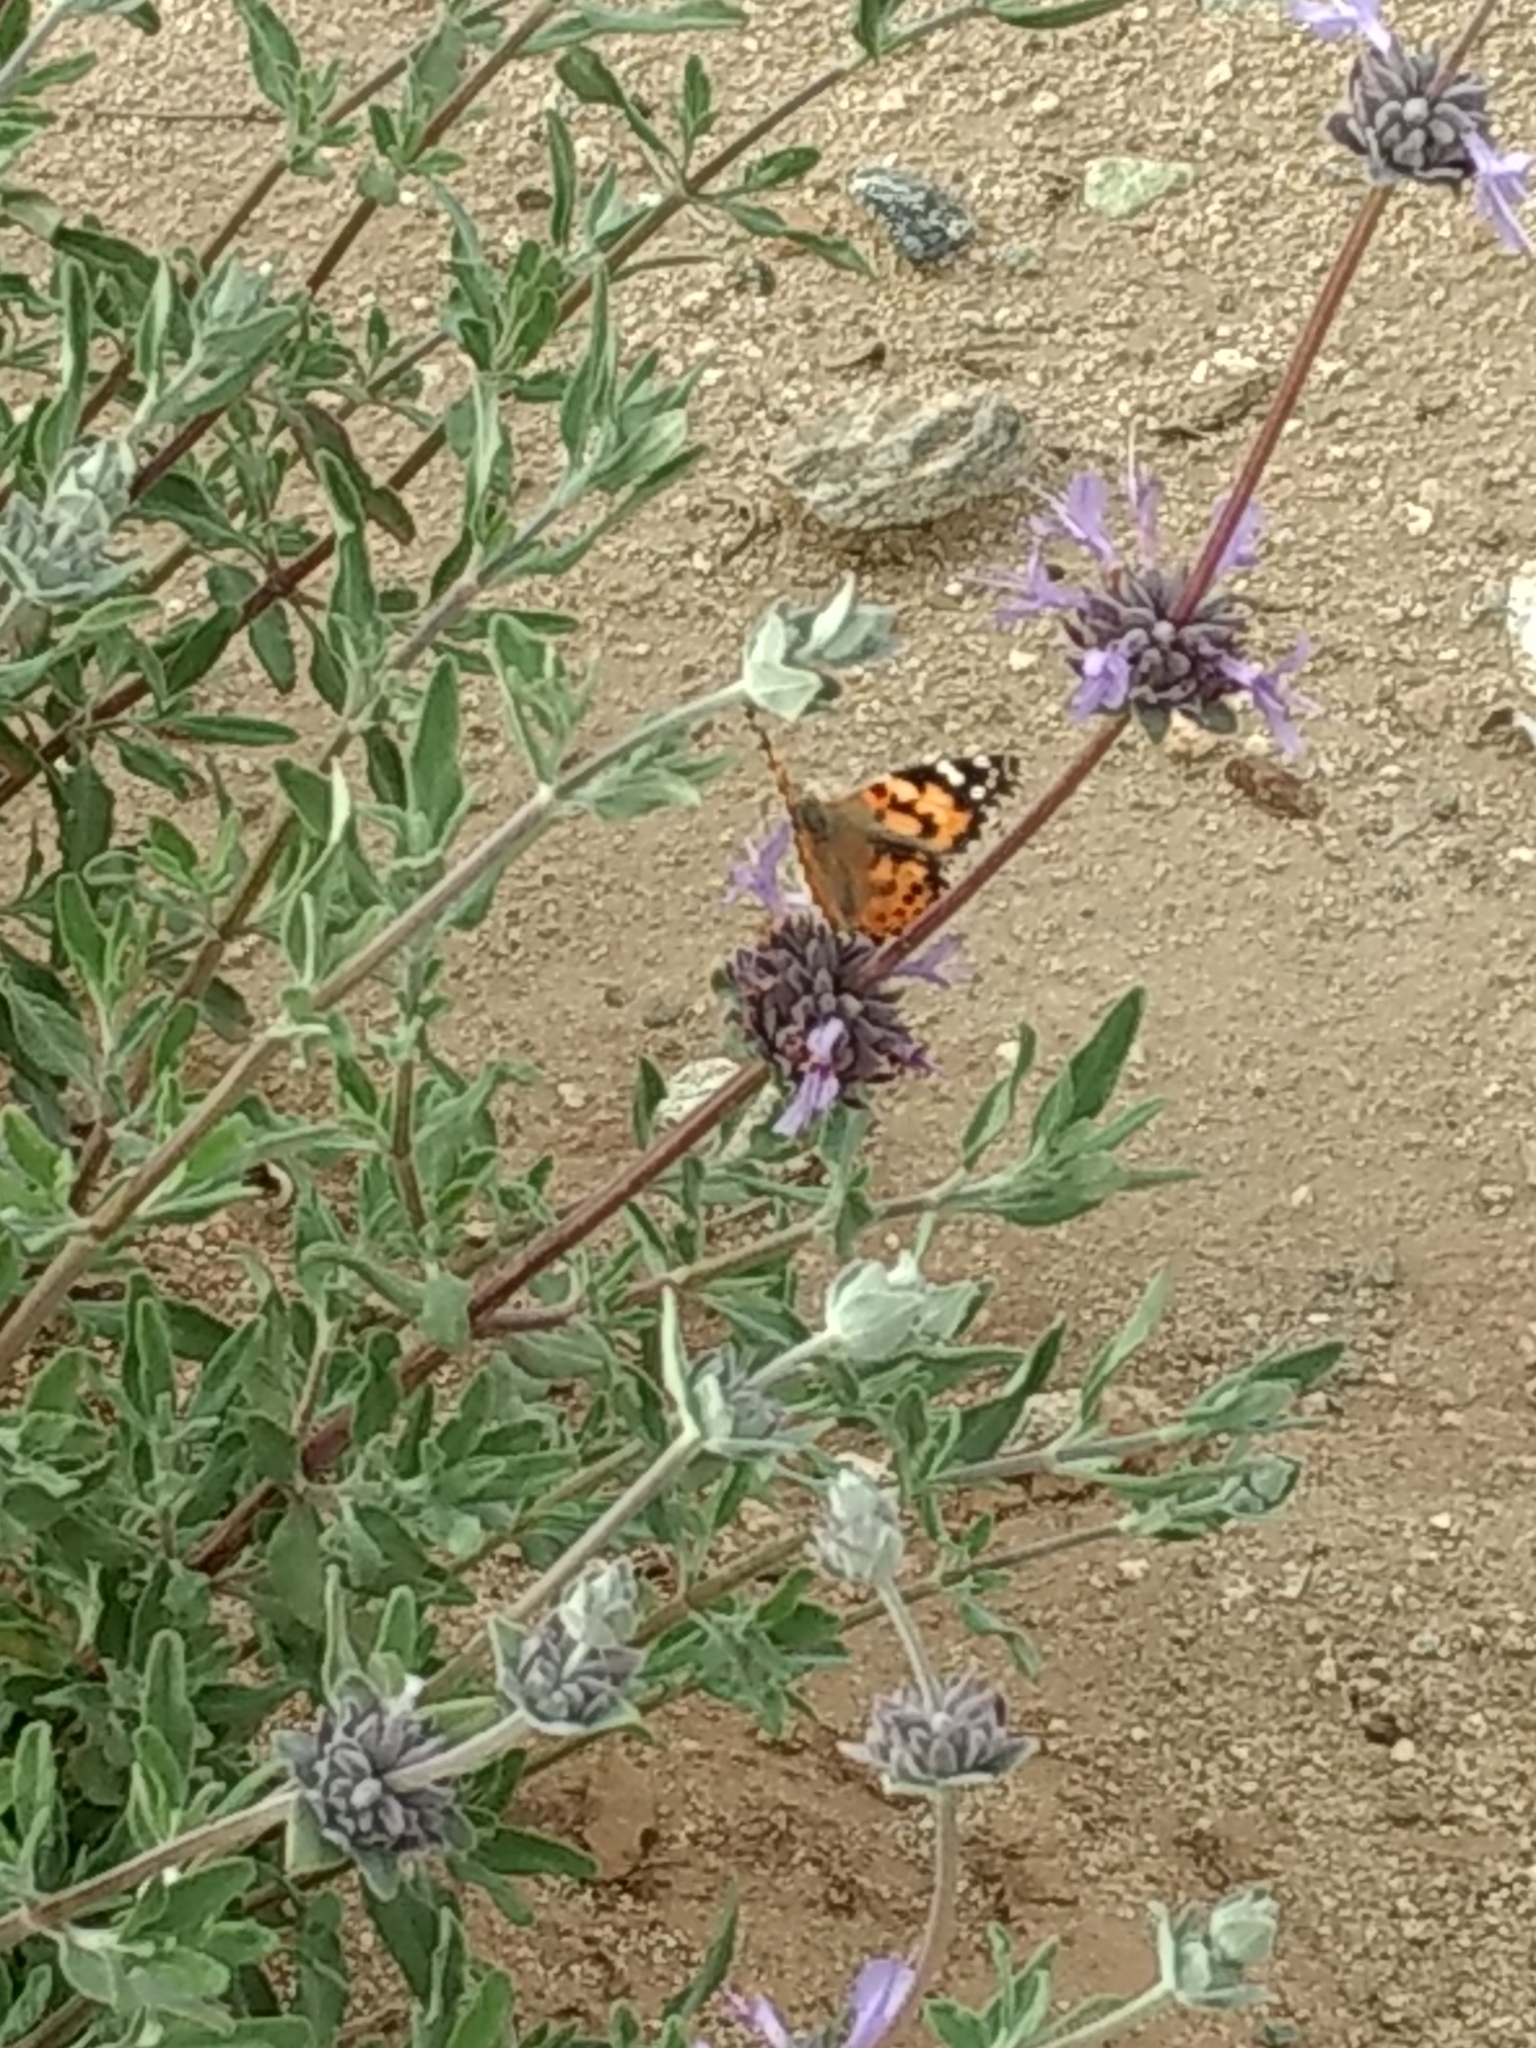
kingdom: Animalia
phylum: Arthropoda
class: Insecta
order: Lepidoptera
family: Nymphalidae
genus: Vanessa
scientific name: Vanessa cardui
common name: Painted lady
